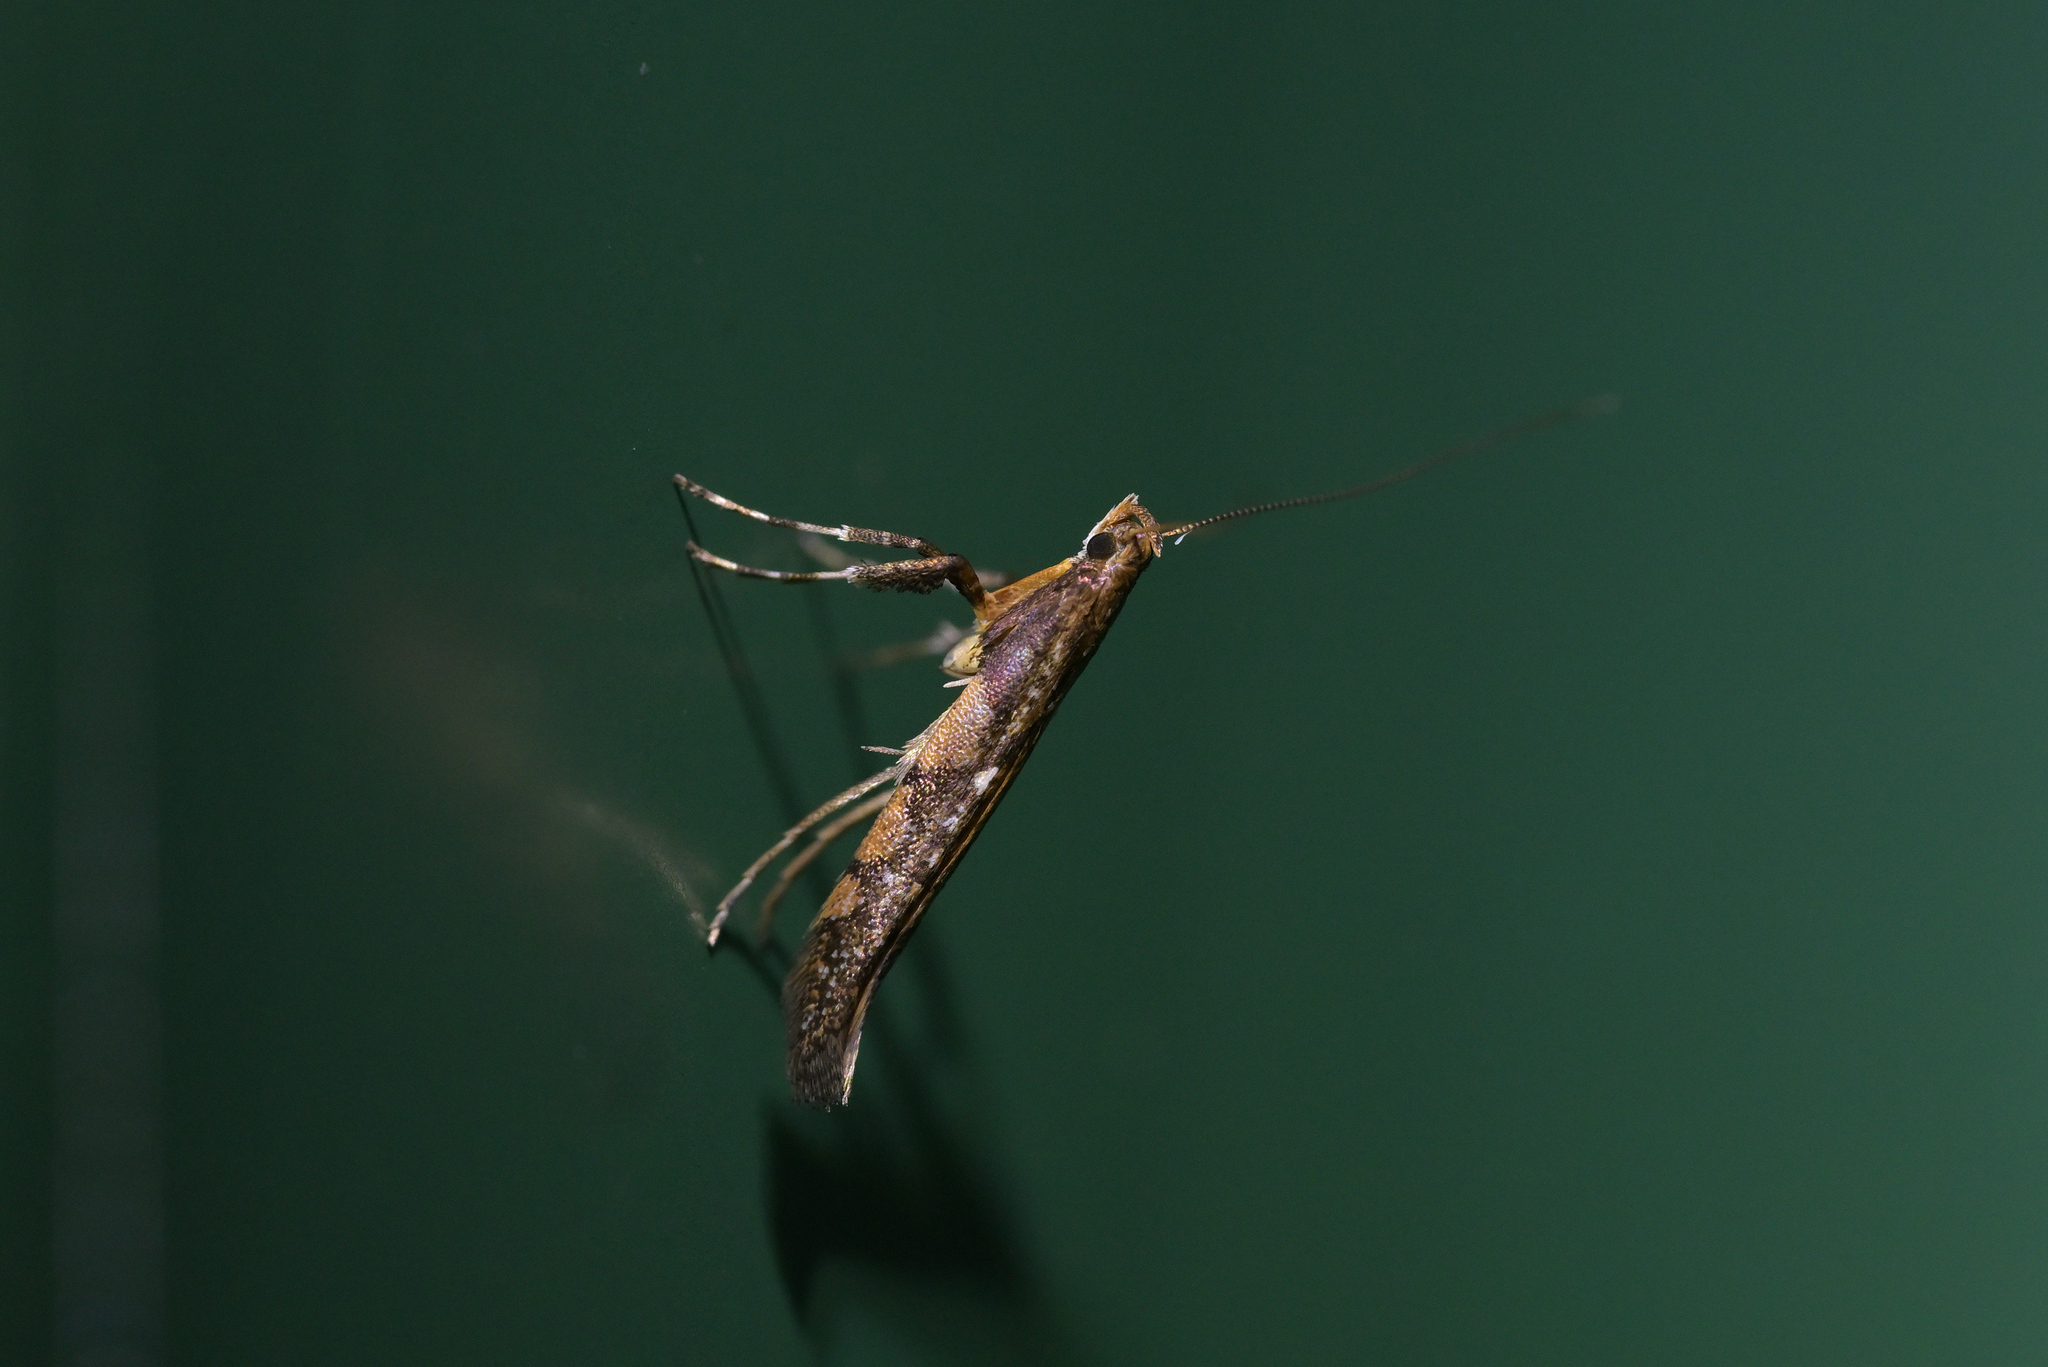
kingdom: Animalia
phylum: Arthropoda
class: Insecta
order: Lepidoptera
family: Gracillariidae
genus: Caloptilia
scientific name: Caloptilia linearis
